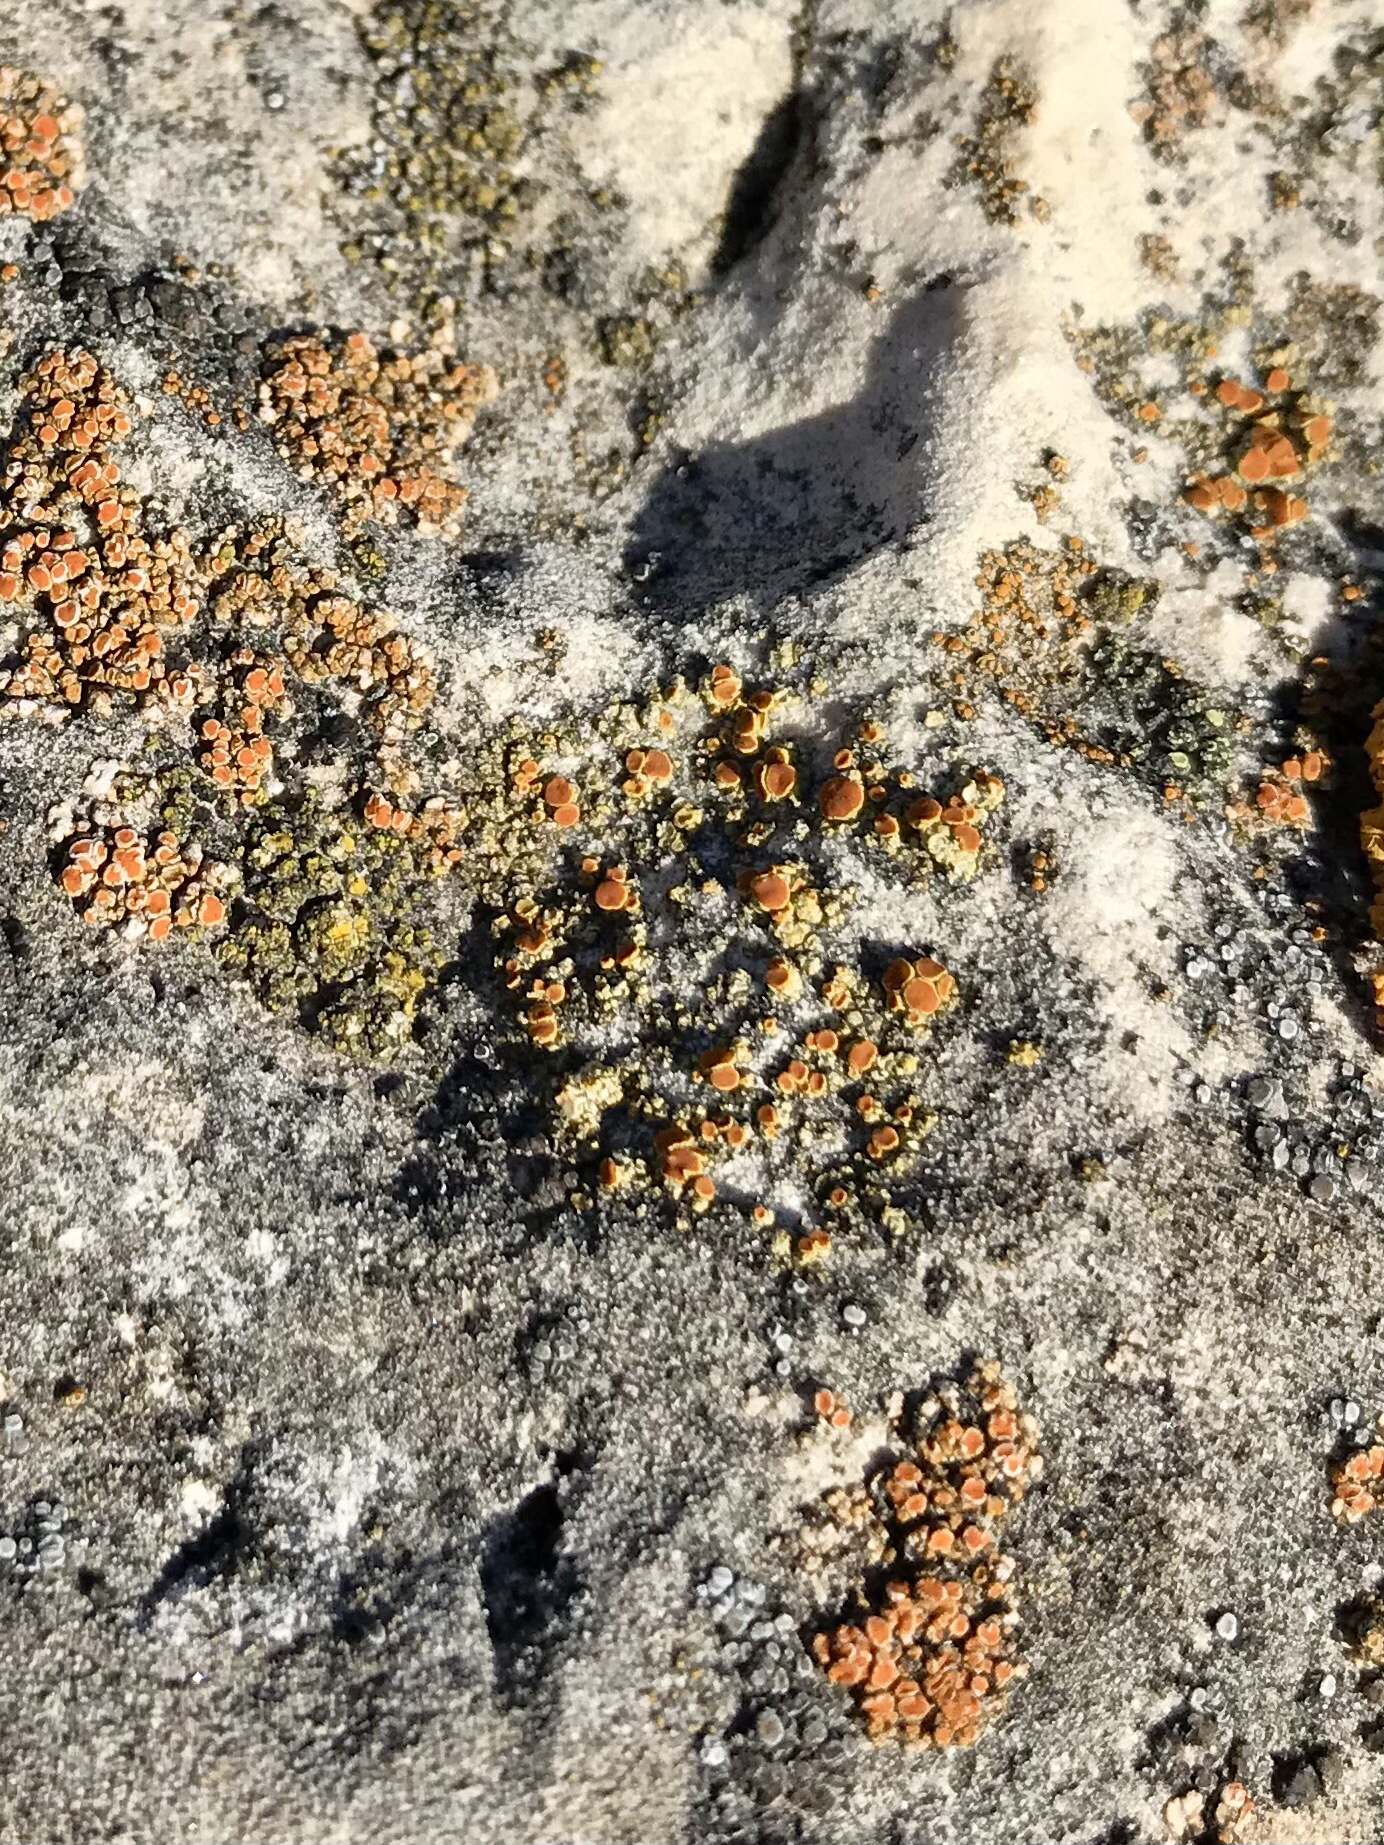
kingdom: Fungi
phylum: Ascomycota
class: Lecanoromycetes
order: Teloschistales
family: Teloschistaceae
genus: Gyalolechia
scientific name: Gyalolechia flavovirescens
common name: Sulphur firedot
